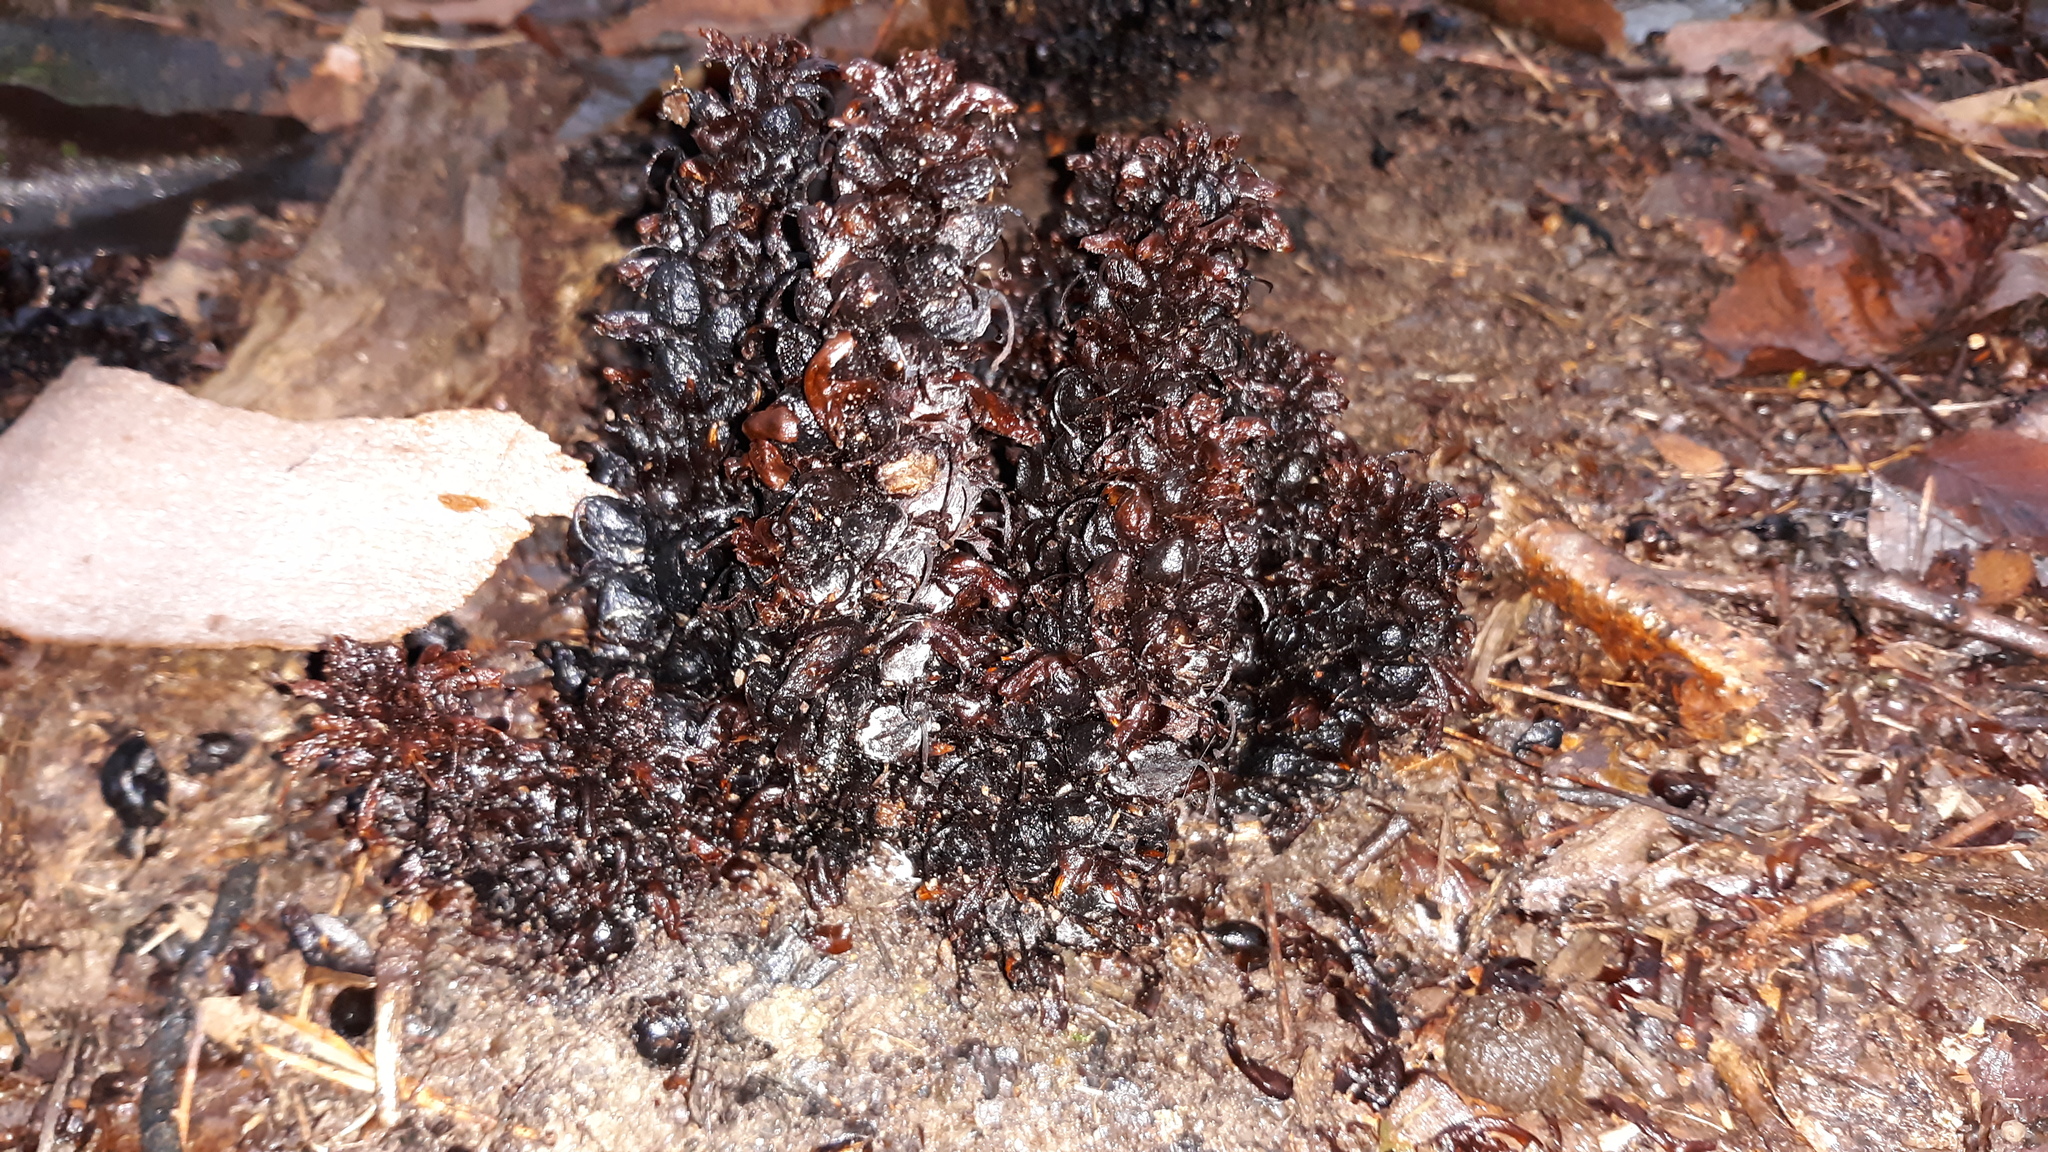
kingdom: Plantae
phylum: Tracheophyta
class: Magnoliopsida
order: Lamiales
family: Orobanchaceae
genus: Conopholis
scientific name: Conopholis americana
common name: American cancer-root
